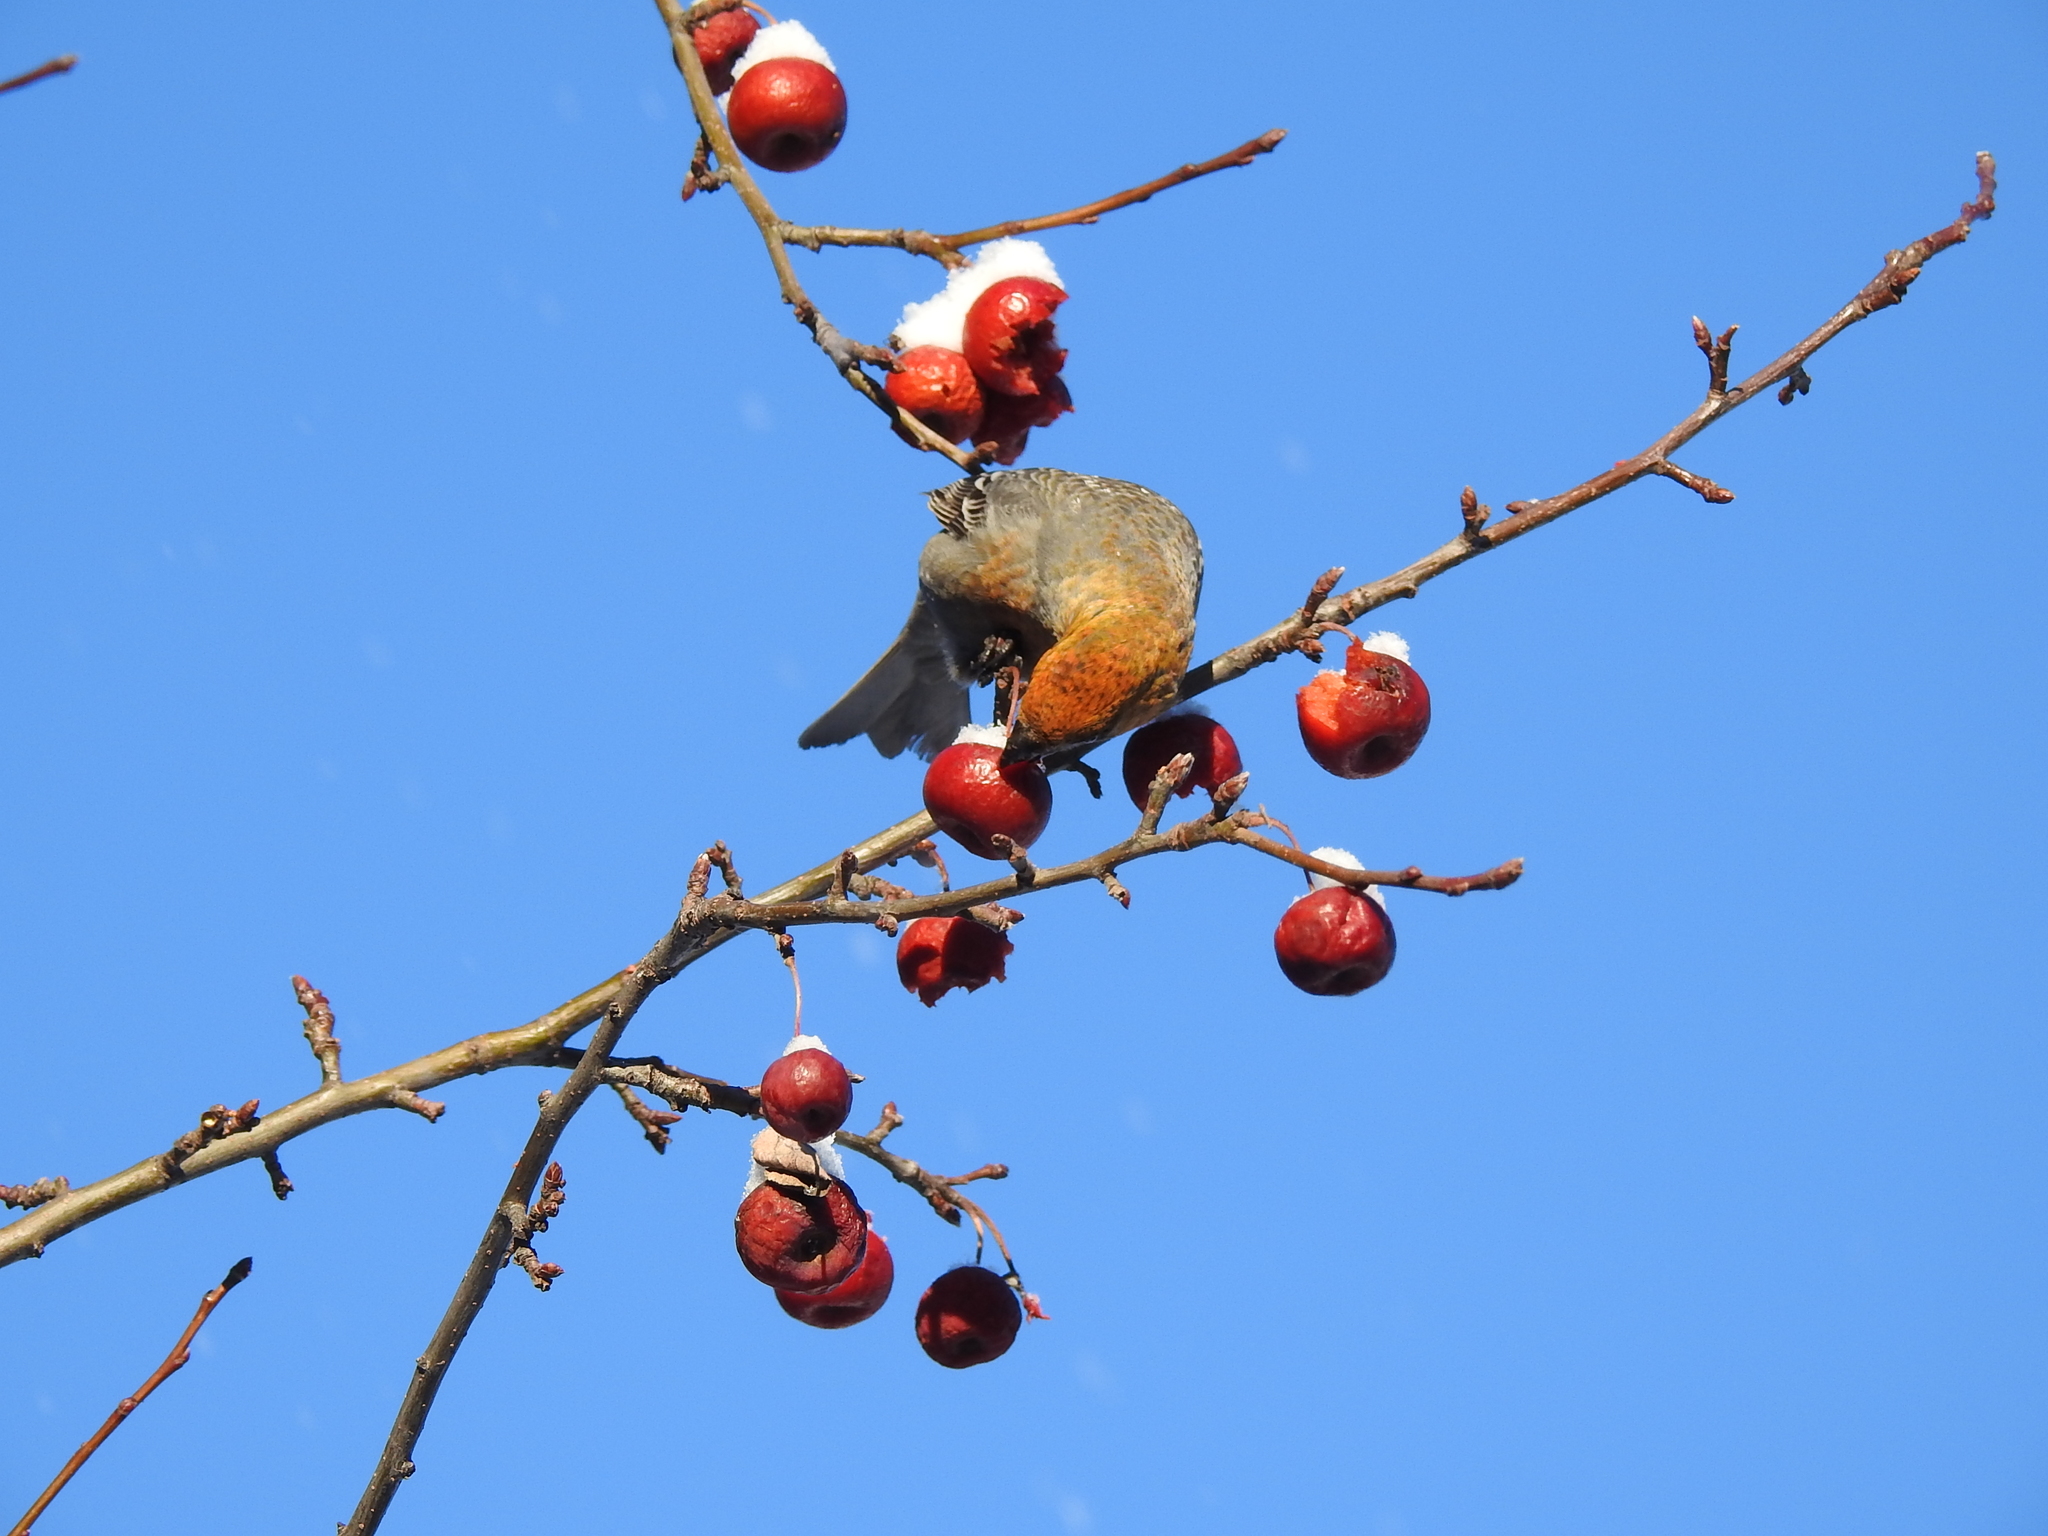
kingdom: Animalia
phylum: Chordata
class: Aves
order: Passeriformes
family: Fringillidae
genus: Pinicola
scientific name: Pinicola enucleator
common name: Pine grosbeak
